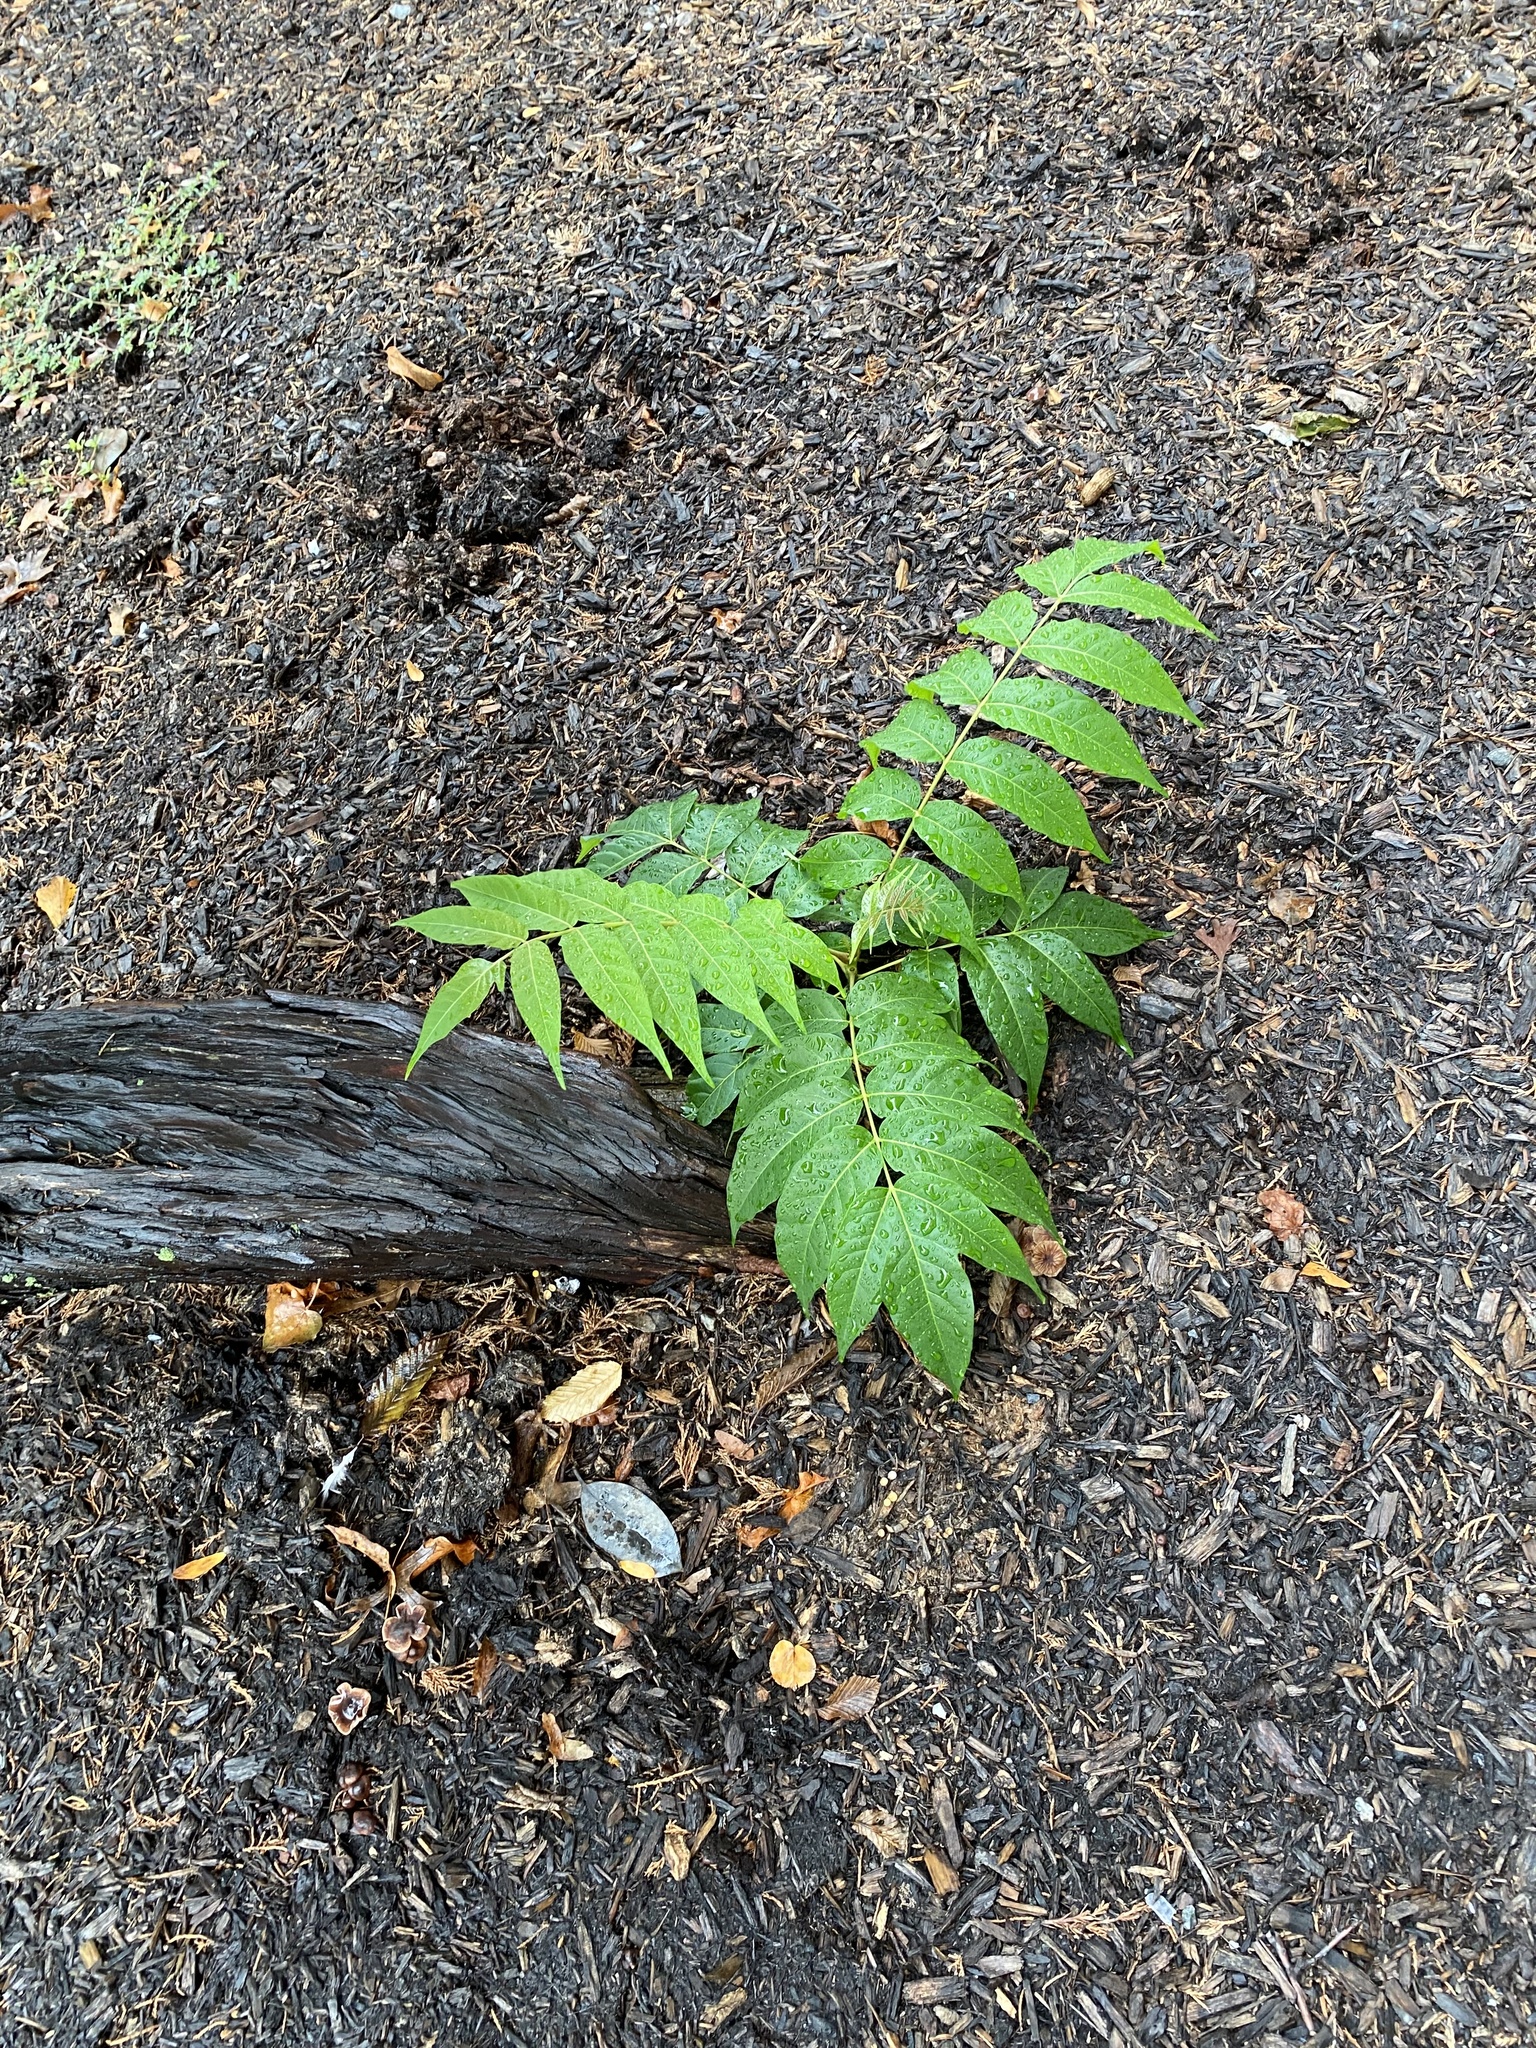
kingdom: Plantae
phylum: Tracheophyta
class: Magnoliopsida
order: Sapindales
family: Simaroubaceae
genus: Ailanthus
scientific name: Ailanthus altissima
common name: Tree-of-heaven
